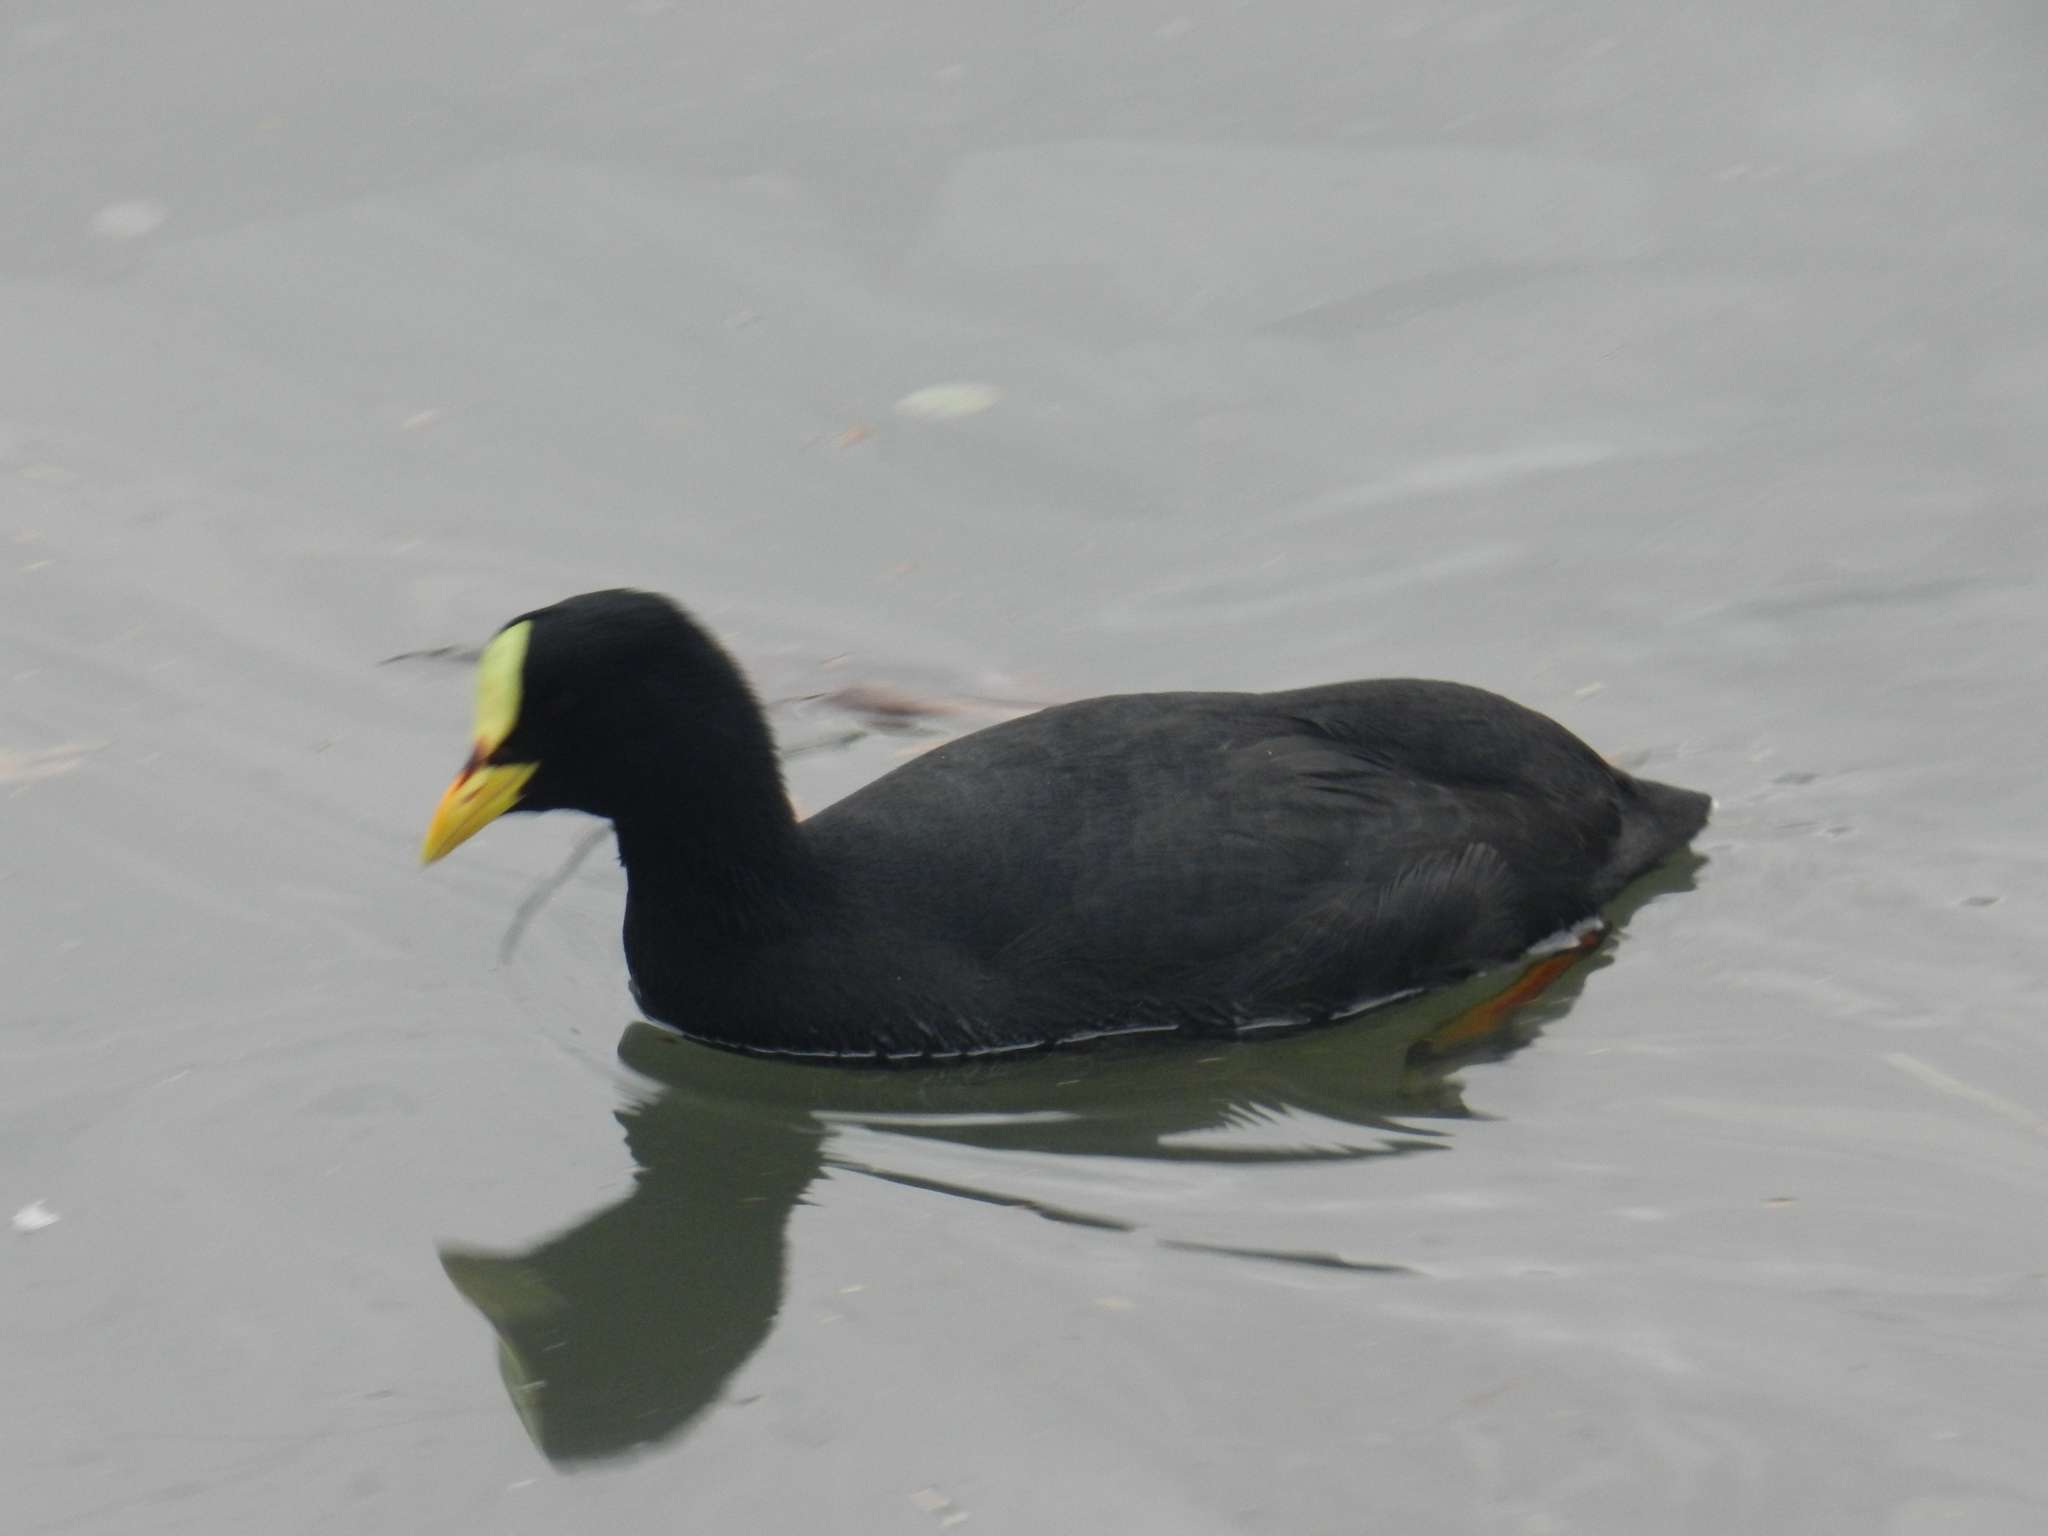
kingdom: Animalia
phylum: Chordata
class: Aves
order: Gruiformes
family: Rallidae
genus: Fulica
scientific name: Fulica armillata
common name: Red-gartered coot
